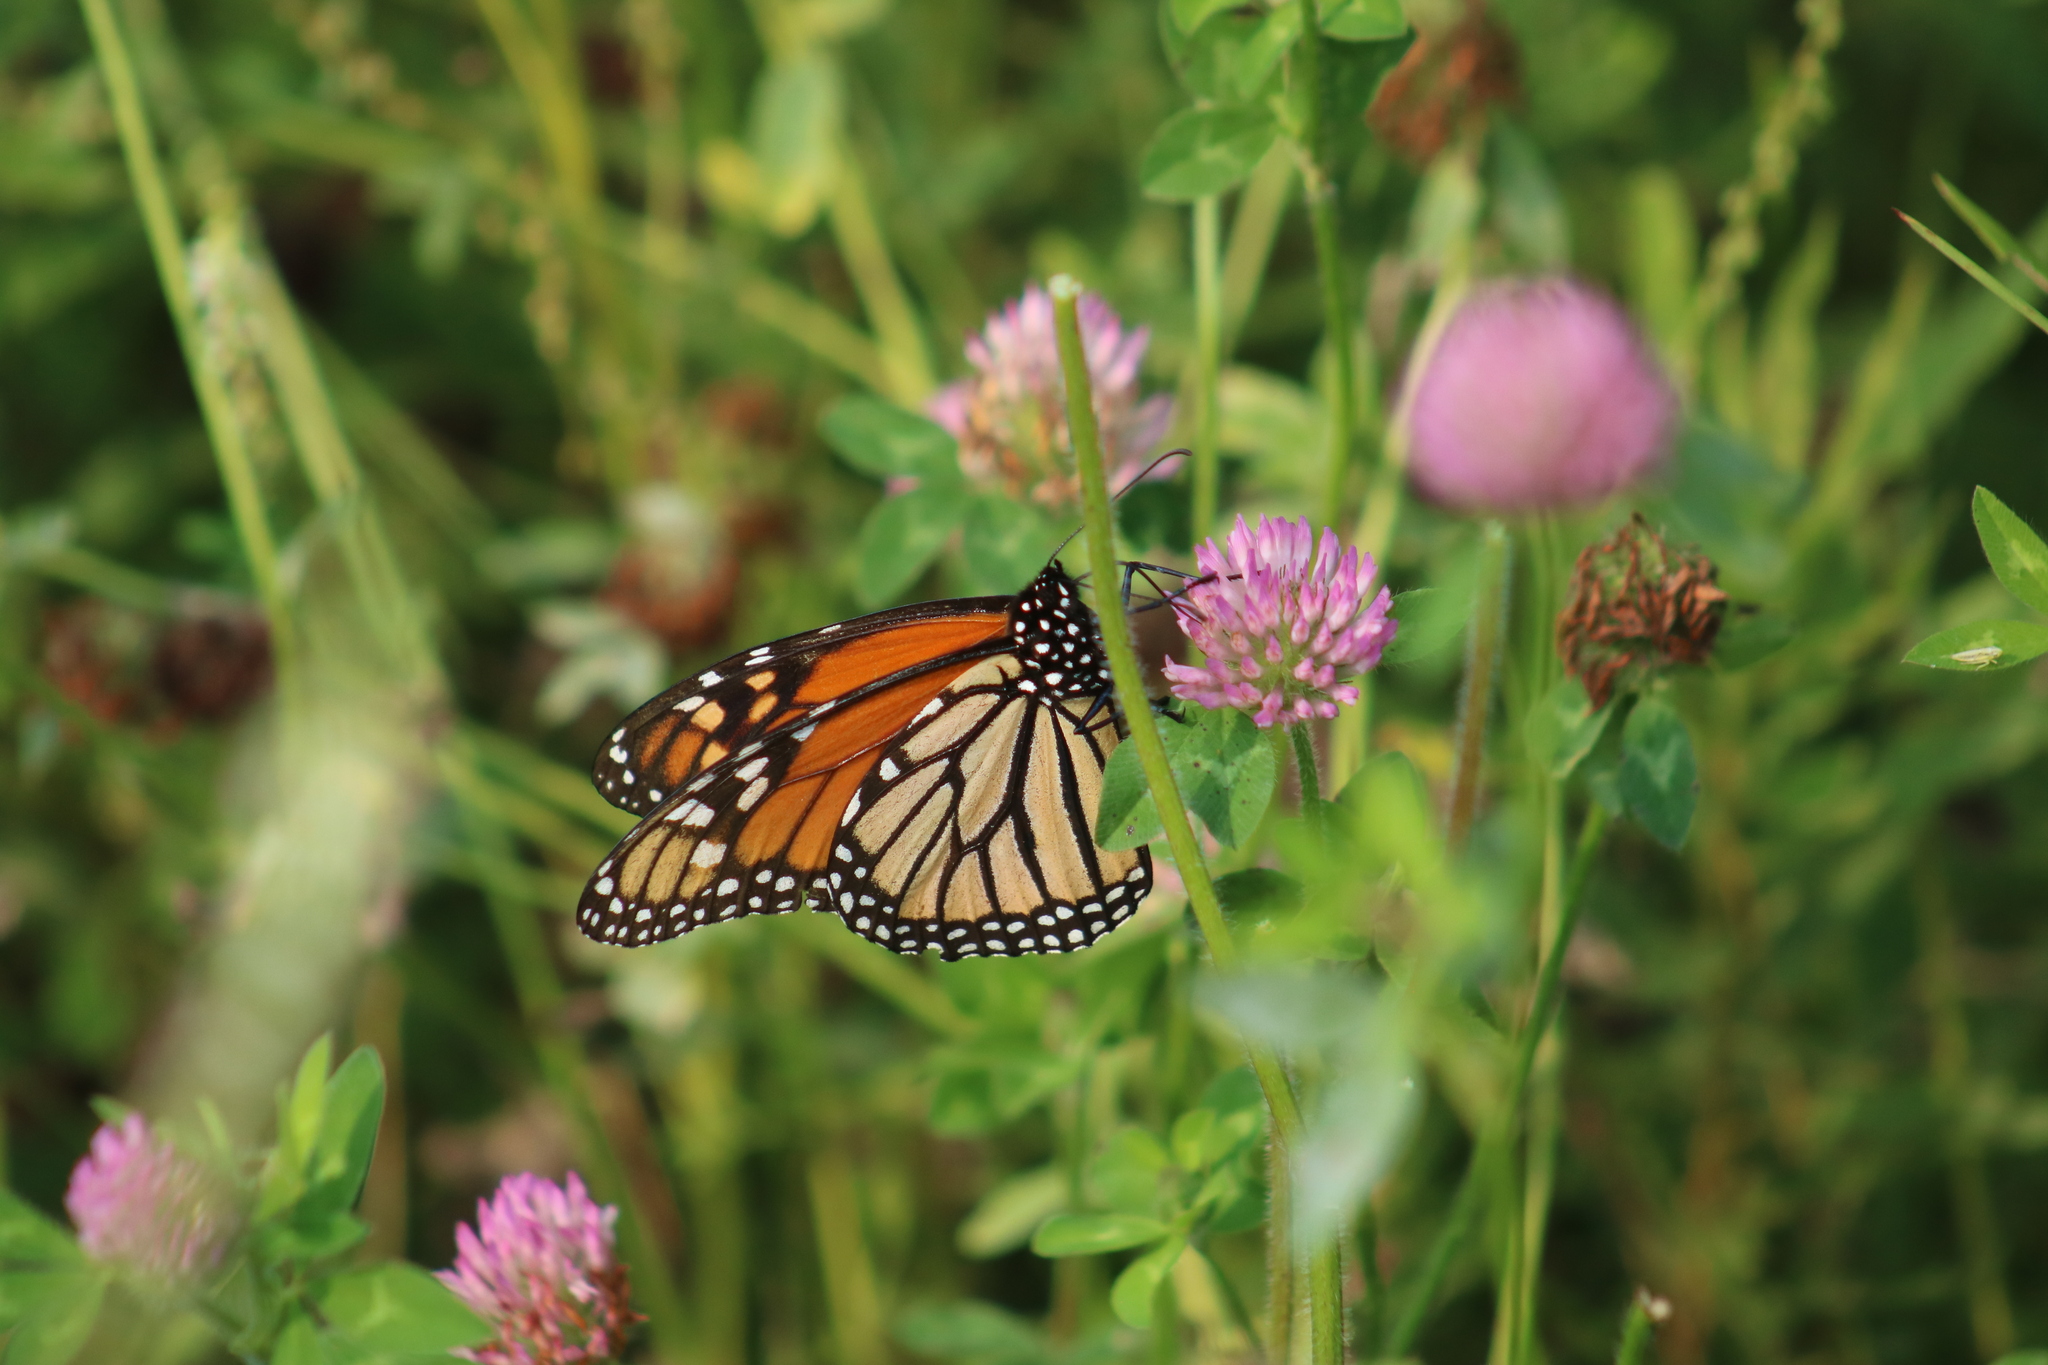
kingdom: Animalia
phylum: Arthropoda
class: Insecta
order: Lepidoptera
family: Nymphalidae
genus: Danaus
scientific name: Danaus plexippus
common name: Monarch
